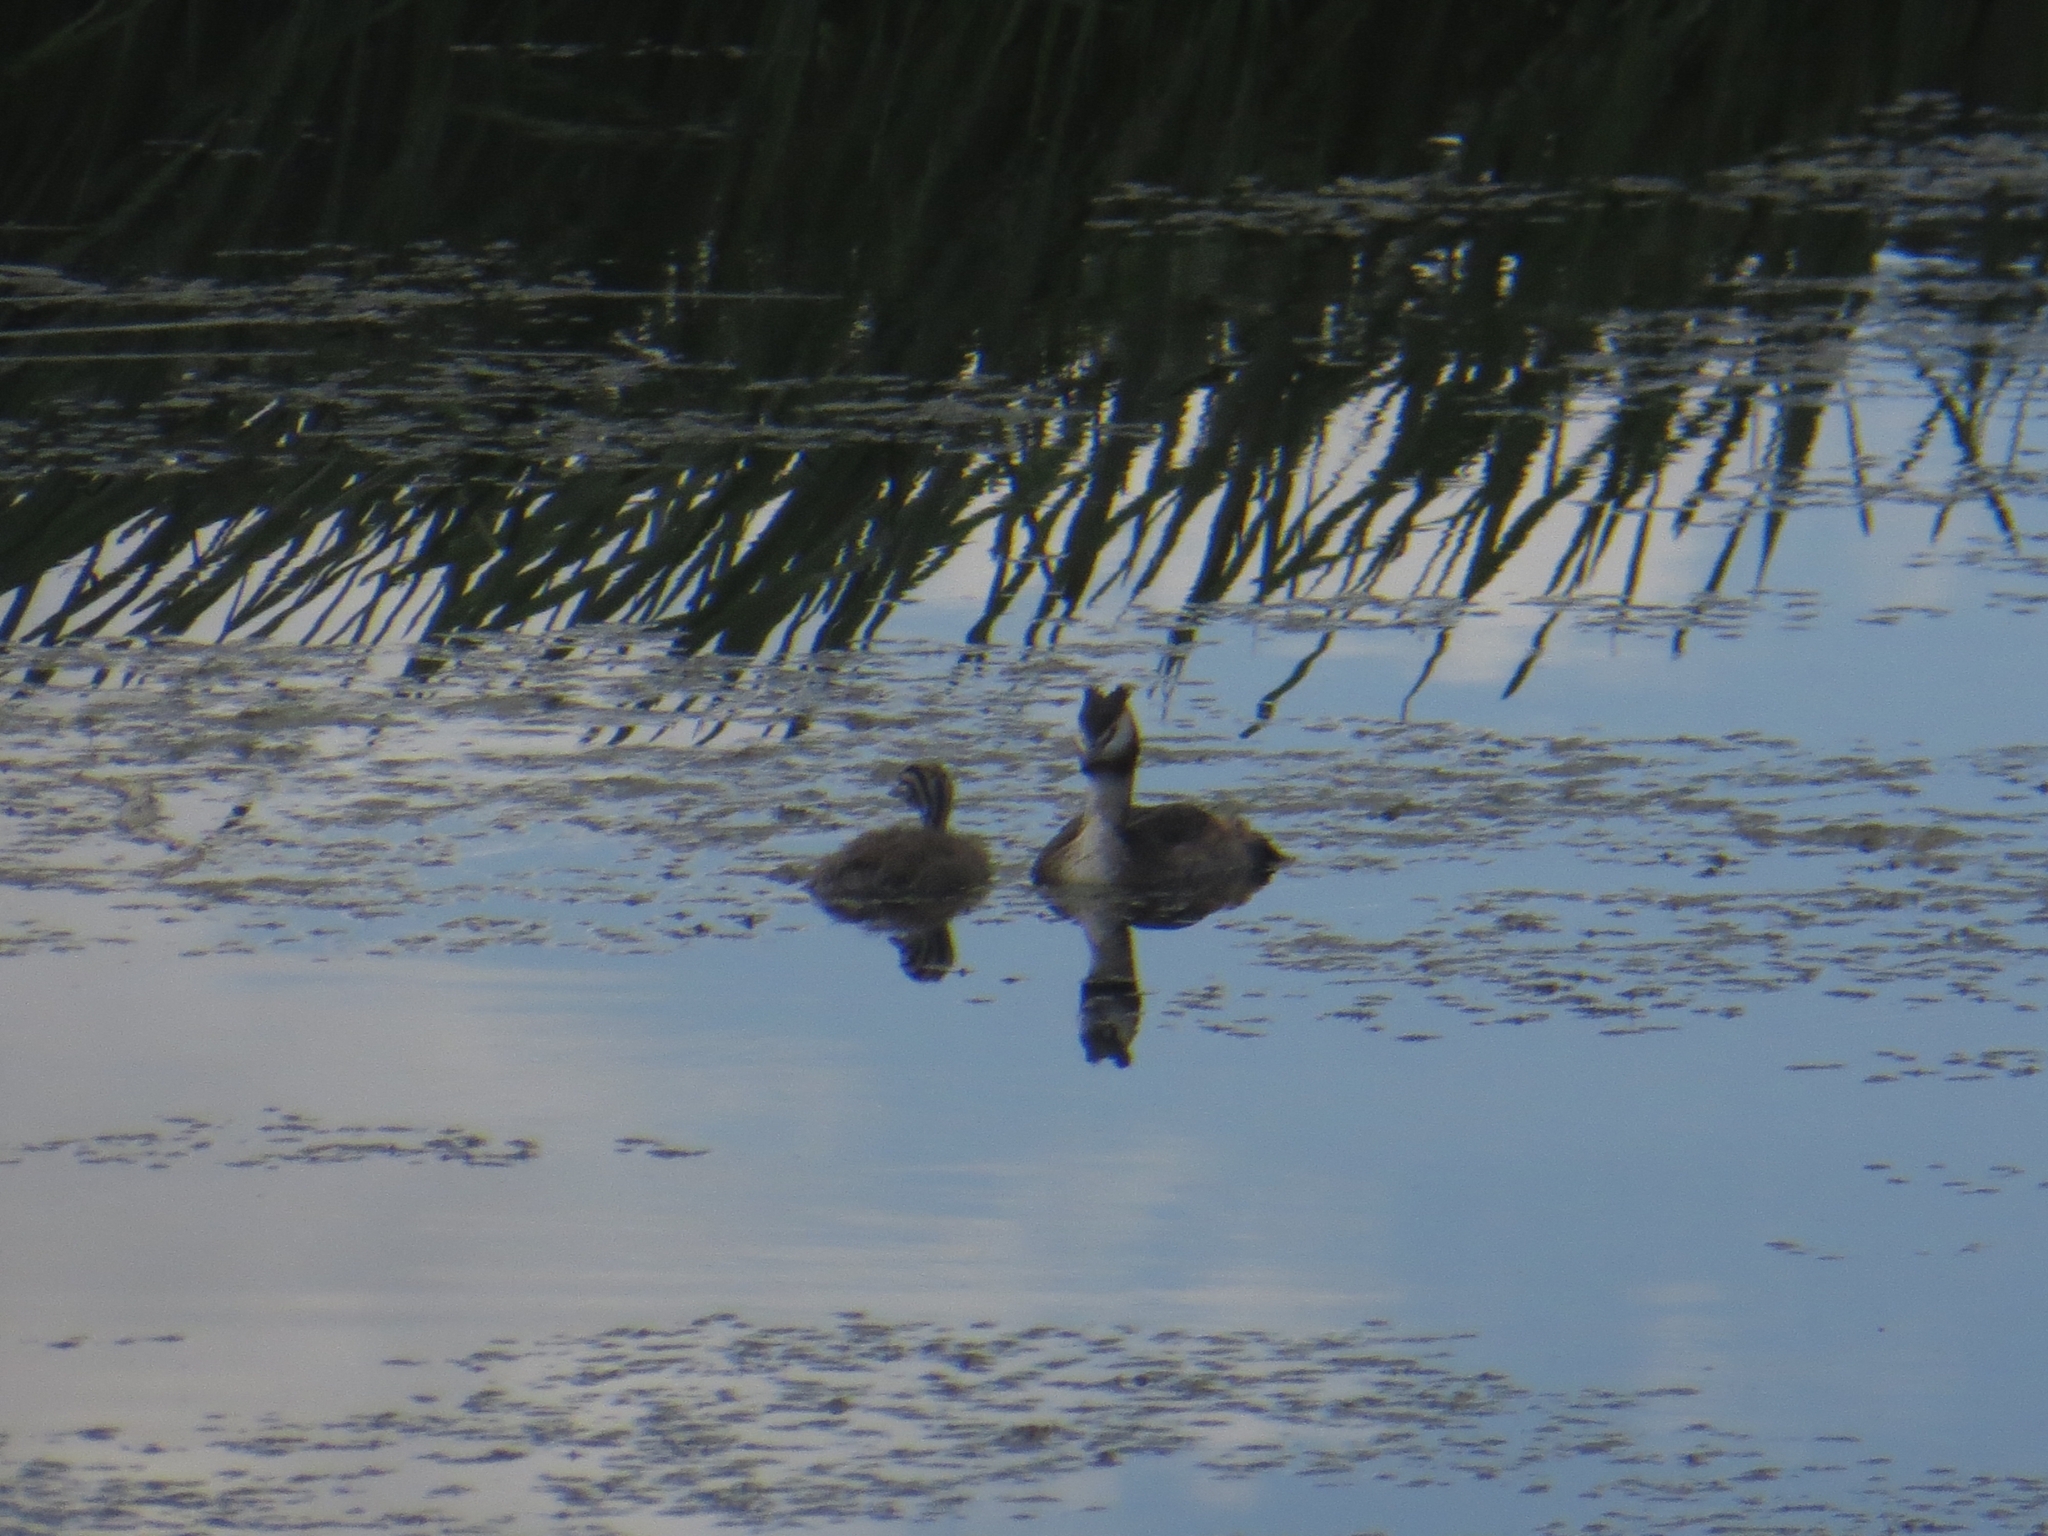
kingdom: Animalia
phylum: Chordata
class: Aves
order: Podicipediformes
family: Podicipedidae
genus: Podiceps
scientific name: Podiceps cristatus
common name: Great crested grebe
